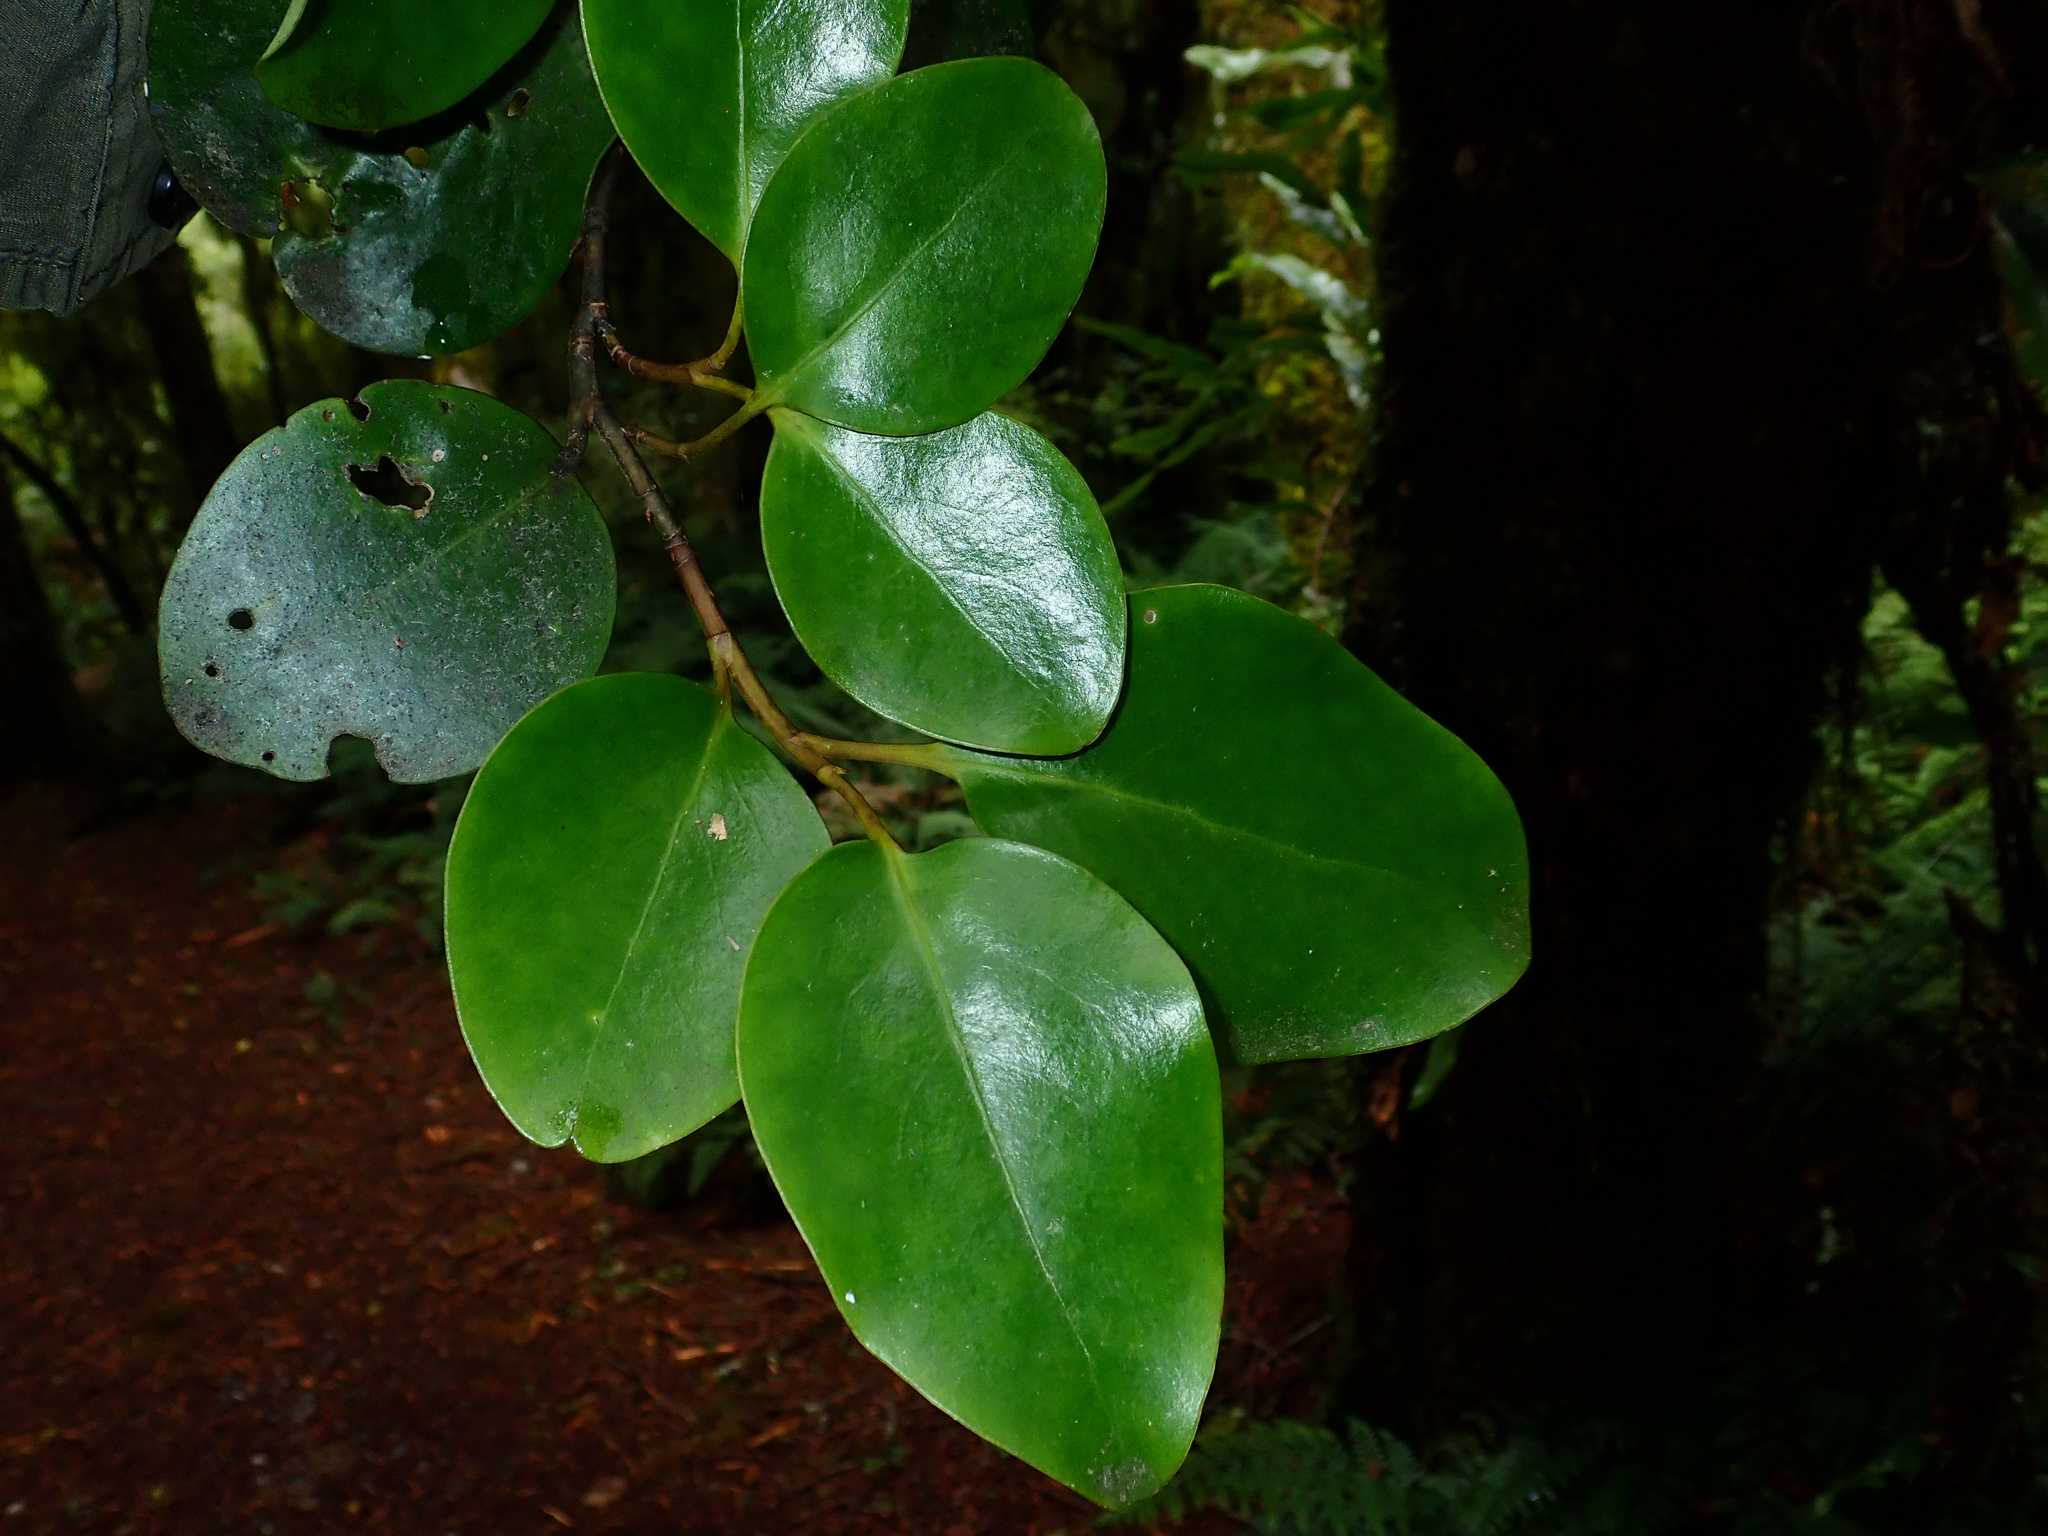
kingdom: Plantae
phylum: Tracheophyta
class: Magnoliopsida
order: Apiales
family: Griseliniaceae
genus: Griselinia
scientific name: Griselinia littoralis
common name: New zealand broadleaf
